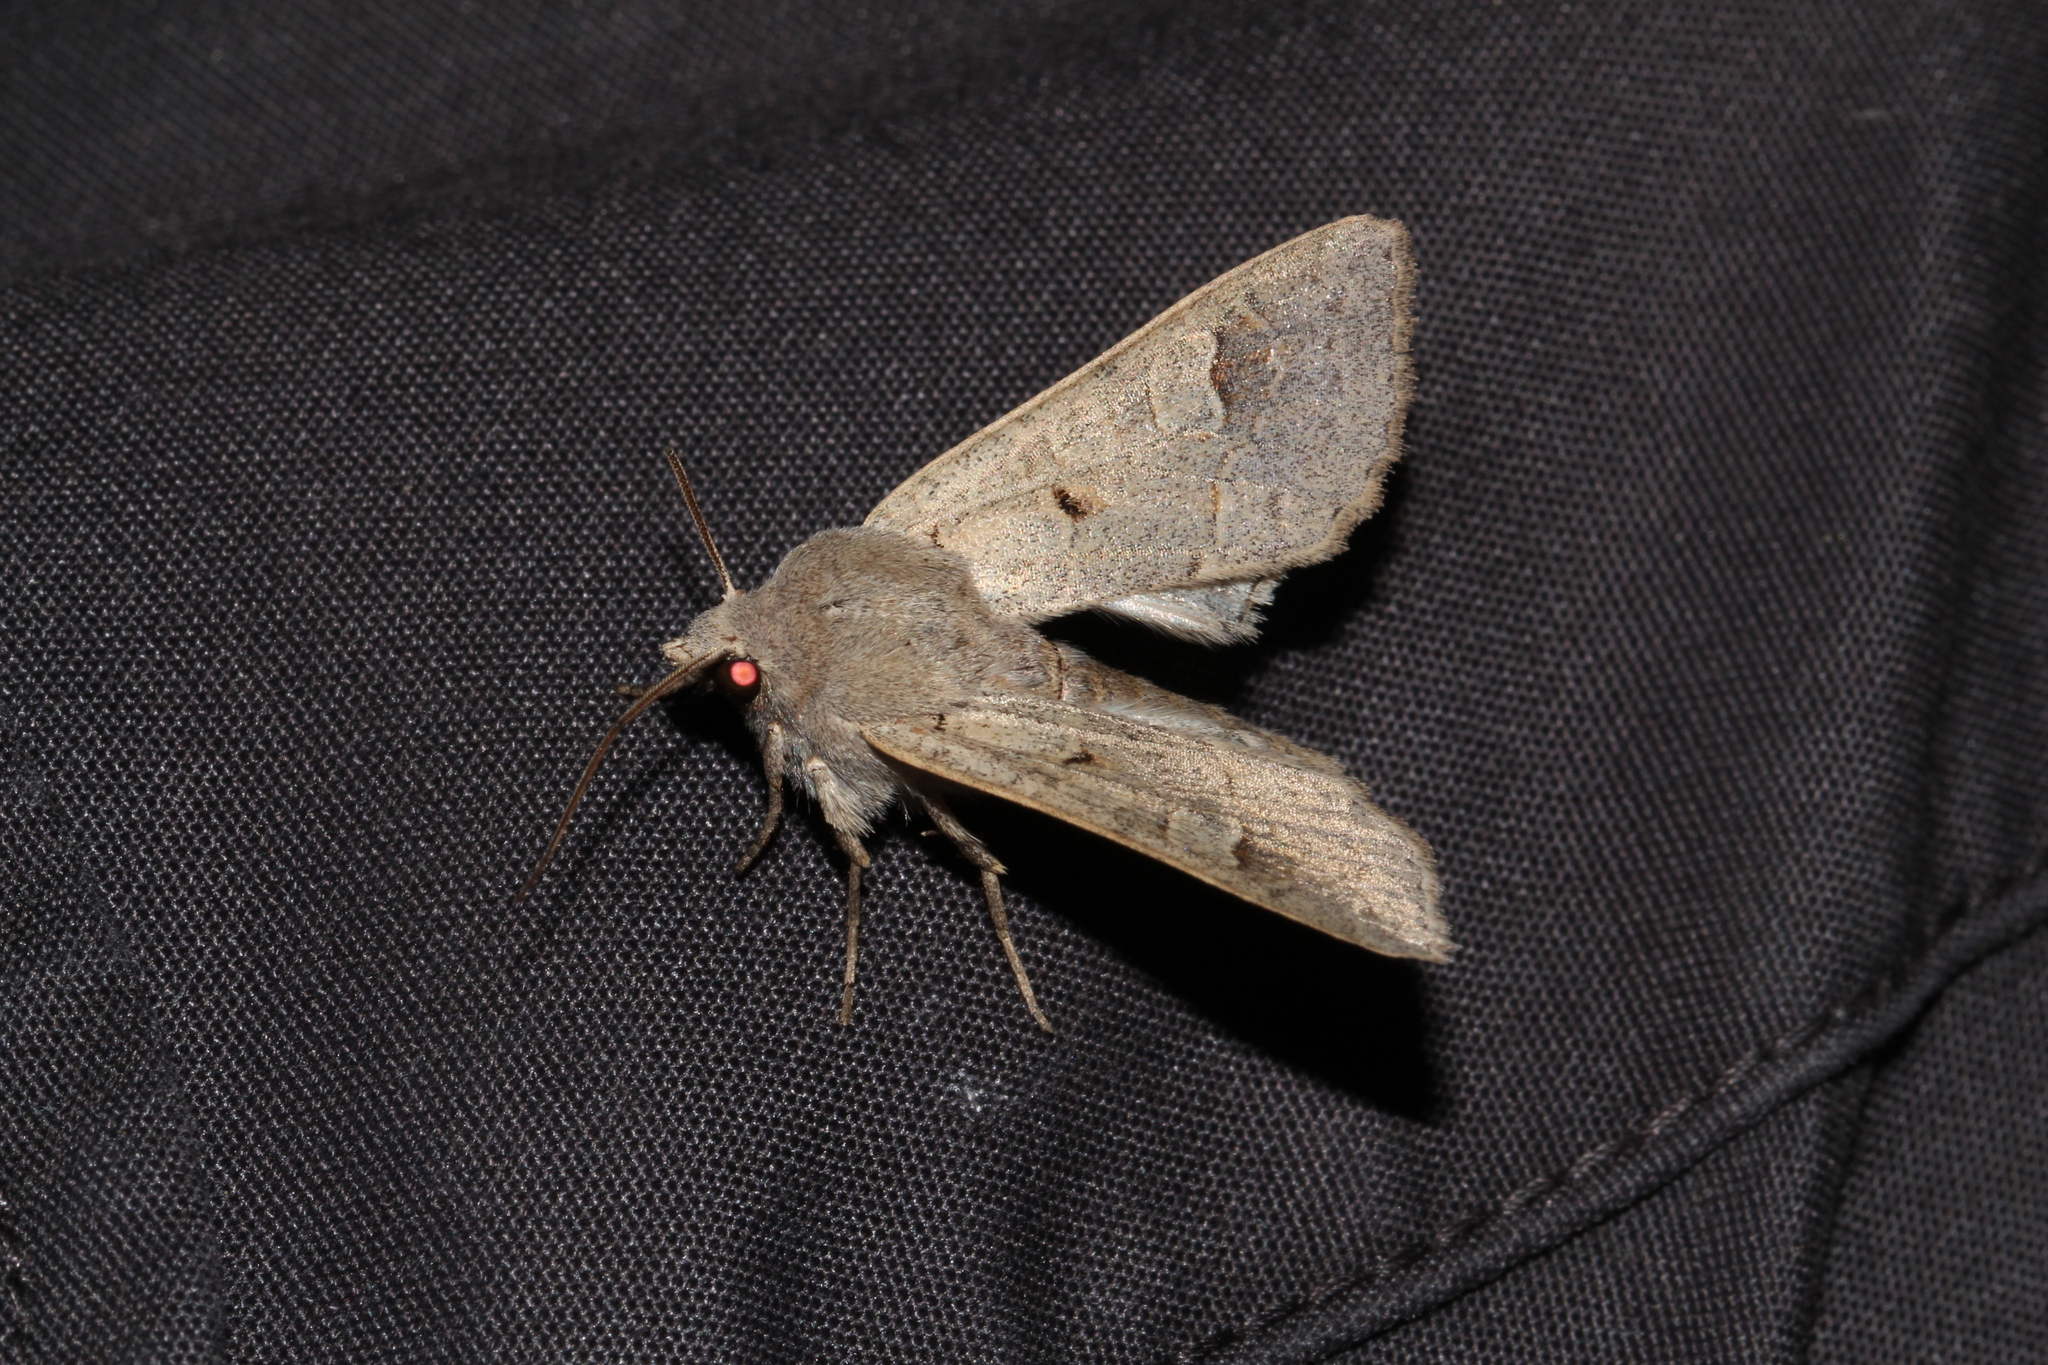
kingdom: Animalia
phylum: Arthropoda
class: Insecta
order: Lepidoptera
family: Noctuidae
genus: Ammoconia
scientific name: Ammoconia caecimacula
